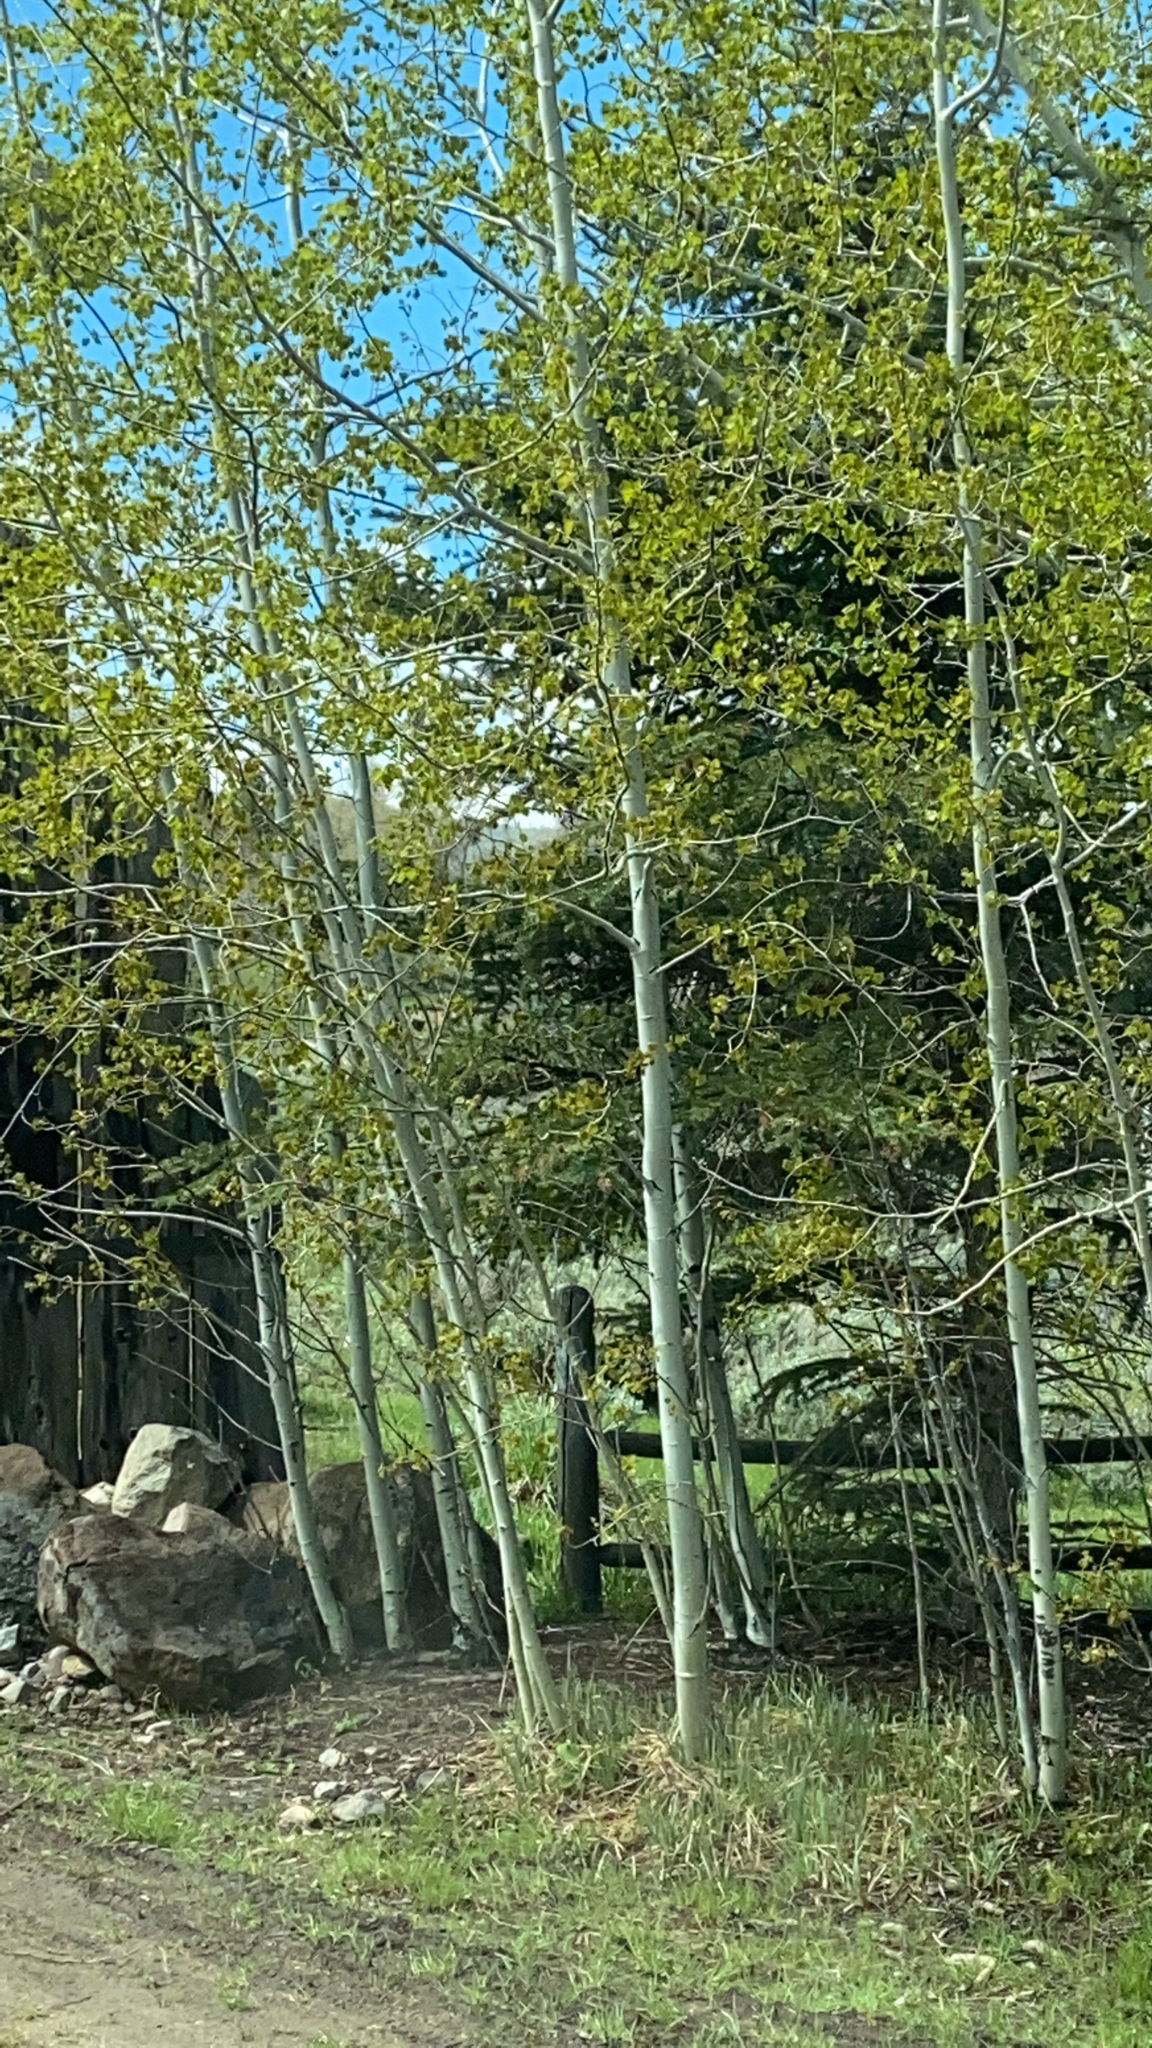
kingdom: Plantae
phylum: Tracheophyta
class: Magnoliopsida
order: Malpighiales
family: Salicaceae
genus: Populus
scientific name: Populus tremuloides
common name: Quaking aspen
